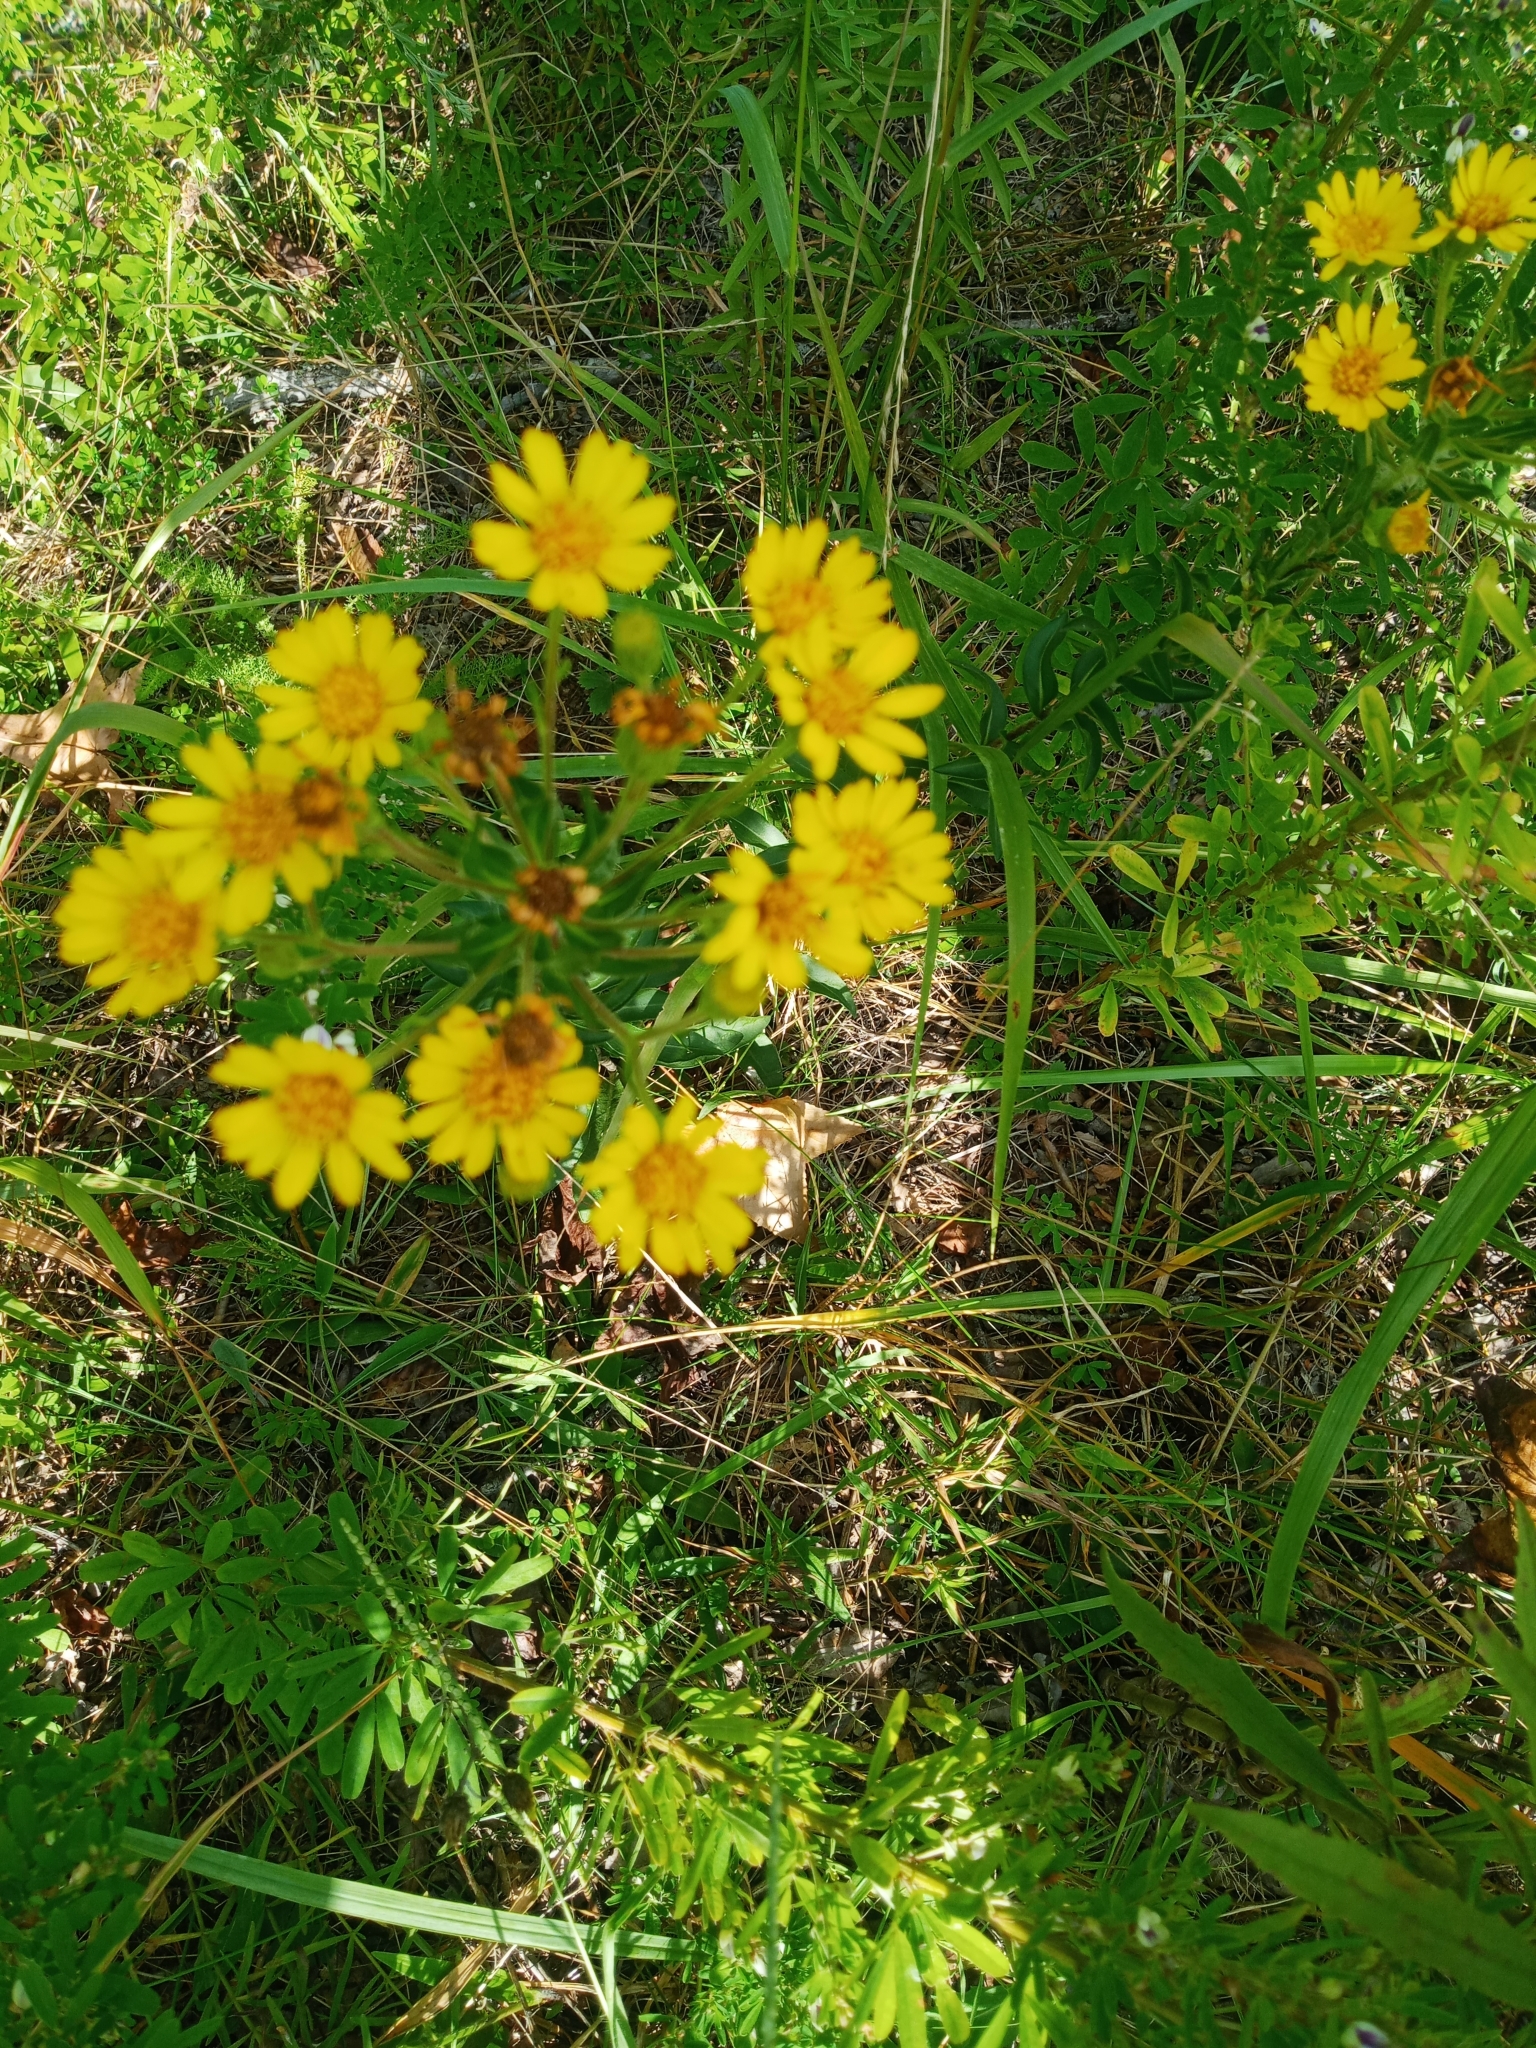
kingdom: Plantae
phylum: Tracheophyta
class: Magnoliopsida
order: Asterales
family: Asteraceae
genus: Chrysopsis
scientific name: Chrysopsis mariana
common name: Maryland golden-aster
